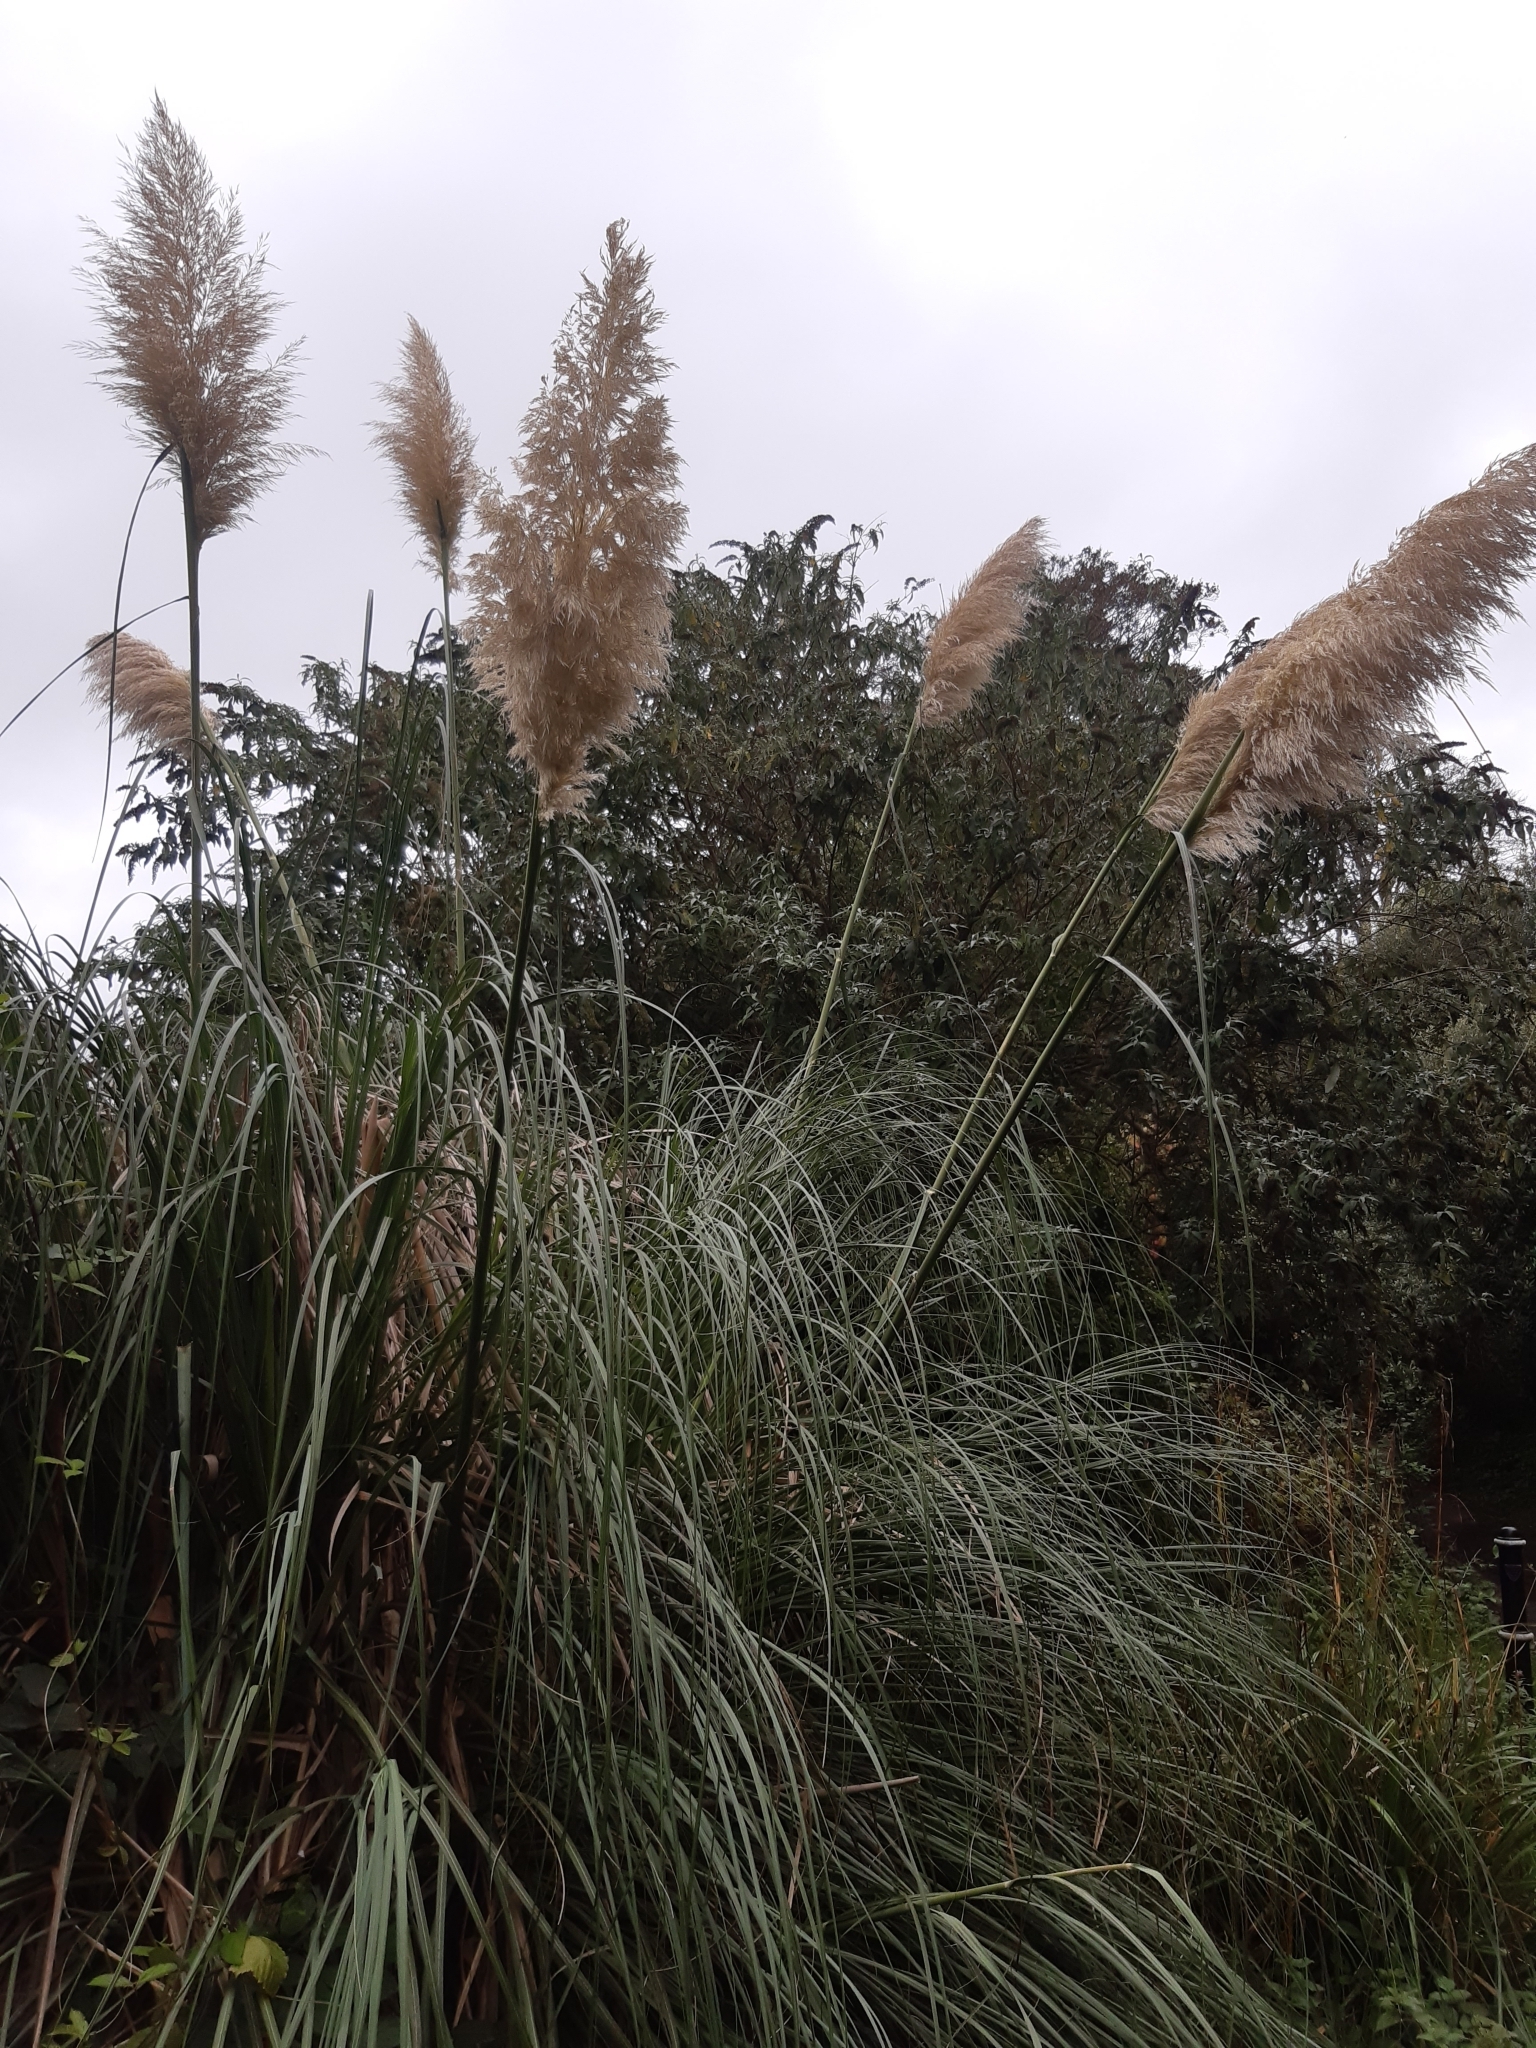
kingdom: Plantae
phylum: Tracheophyta
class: Liliopsida
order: Poales
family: Poaceae
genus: Cortaderia
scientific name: Cortaderia selloana
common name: Uruguayan pampas grass
